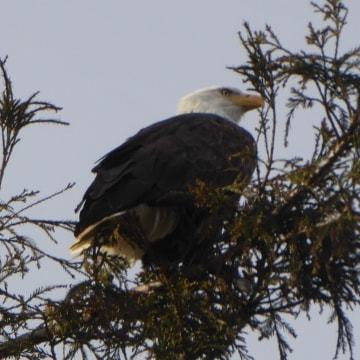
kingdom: Animalia
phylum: Chordata
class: Aves
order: Accipitriformes
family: Accipitridae
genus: Haliaeetus
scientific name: Haliaeetus leucocephalus
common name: Bald eagle
